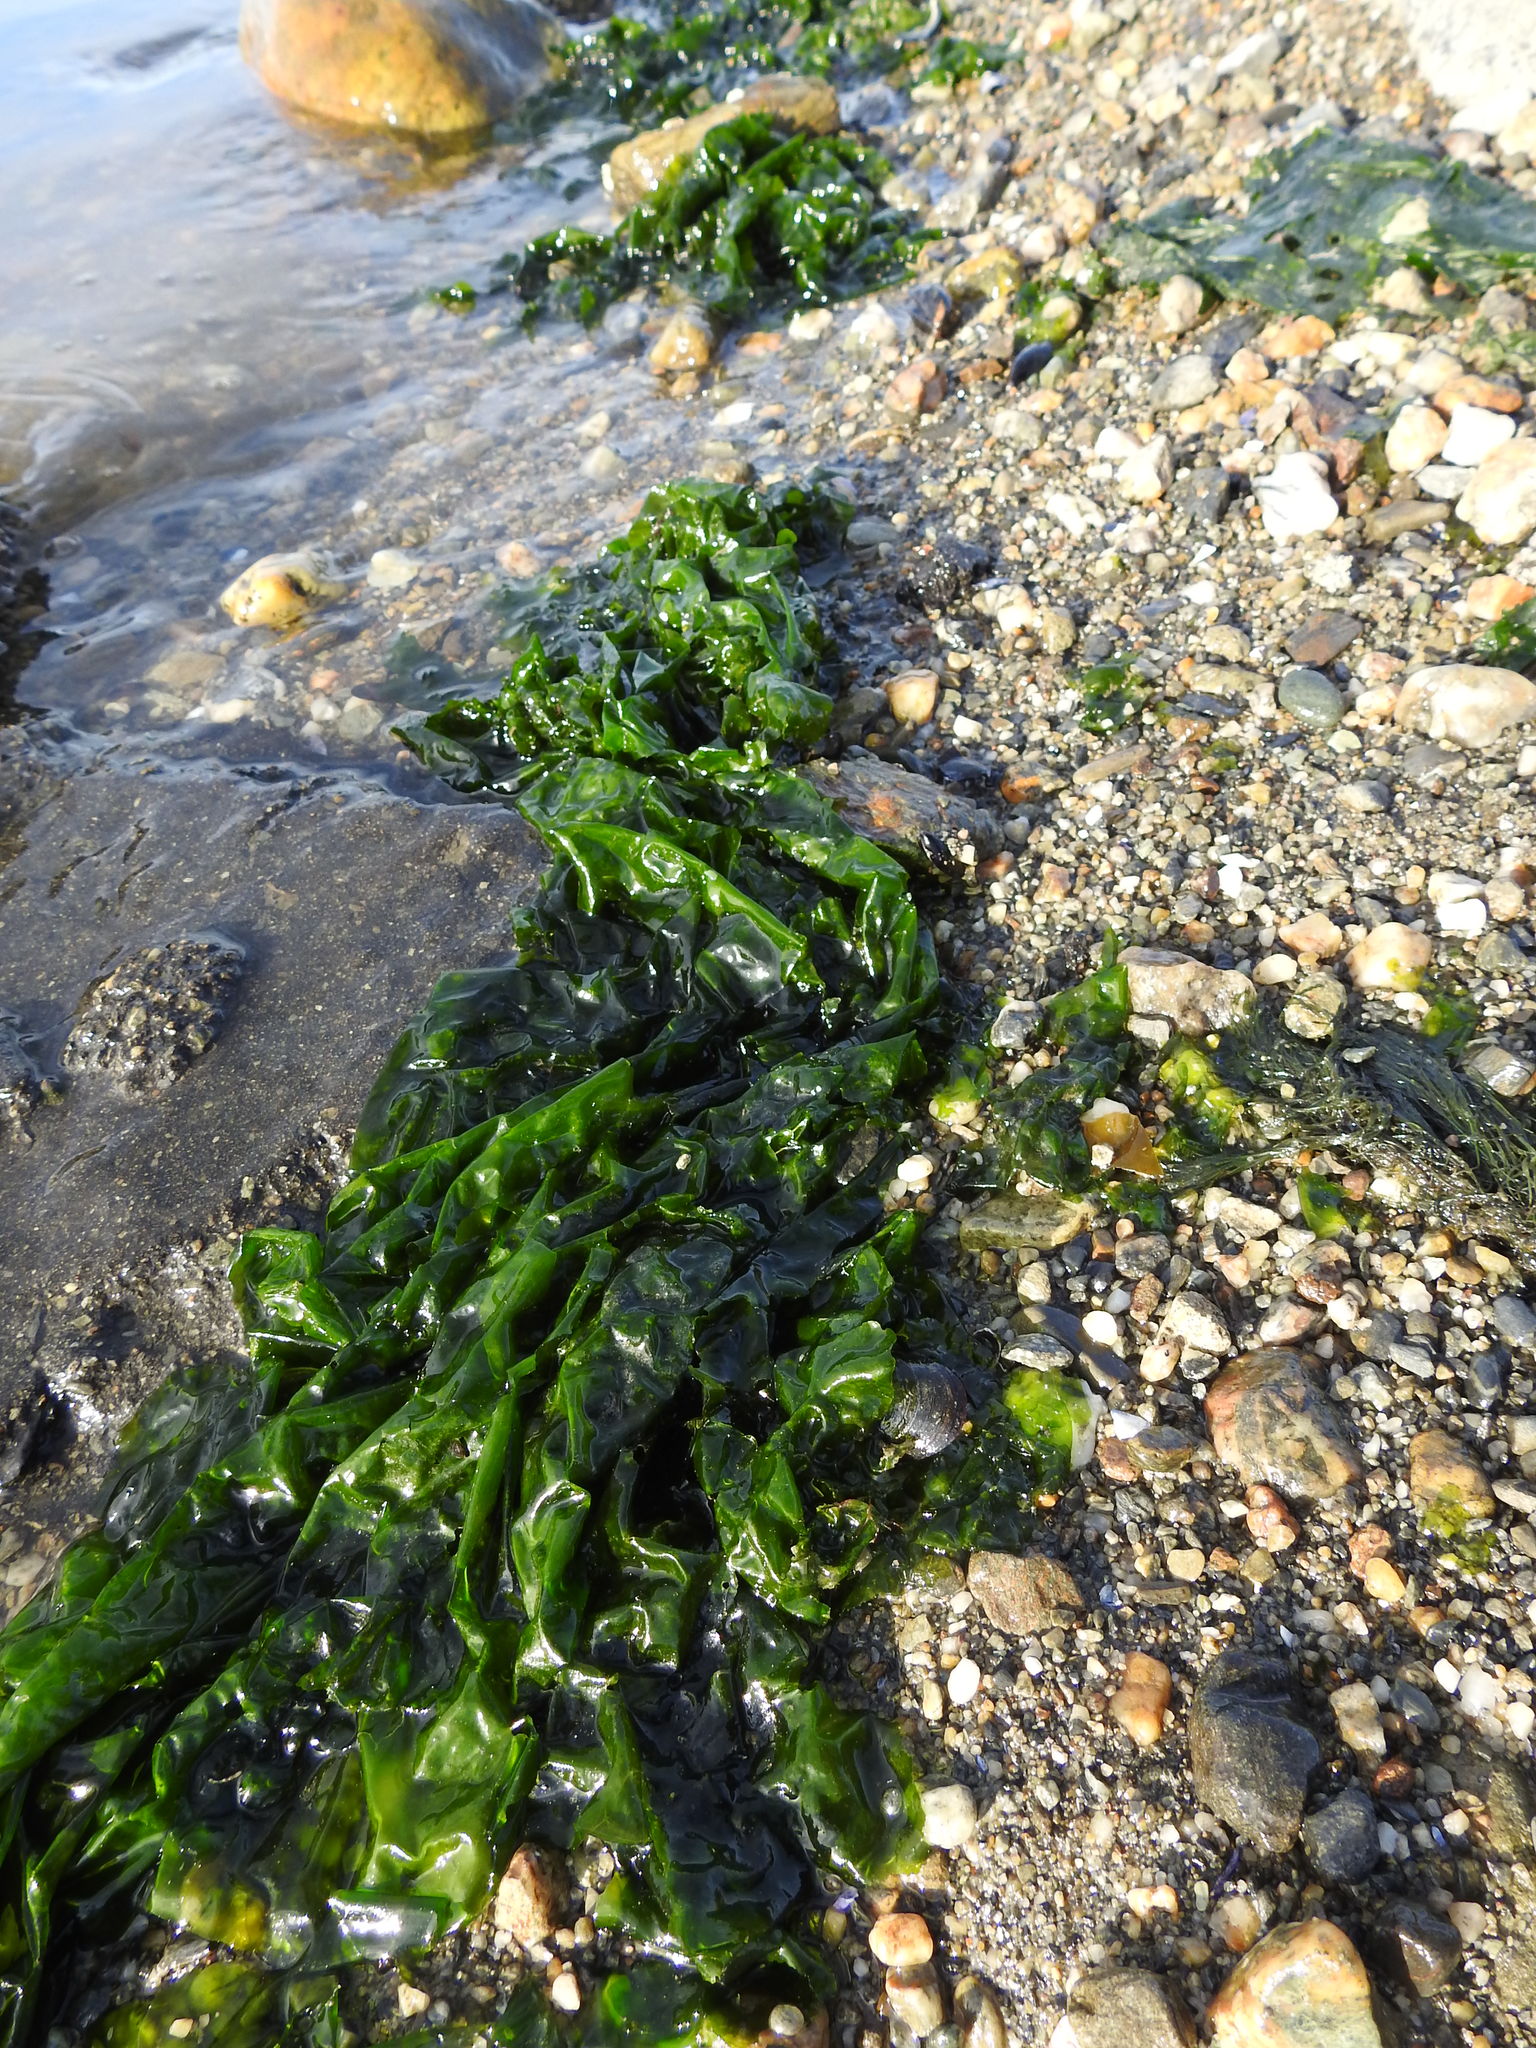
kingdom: Plantae
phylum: Chlorophyta
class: Ulvophyceae
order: Ulvales
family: Ulvaceae
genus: Ulva
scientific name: Ulva lactuca
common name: Sea lettuce
